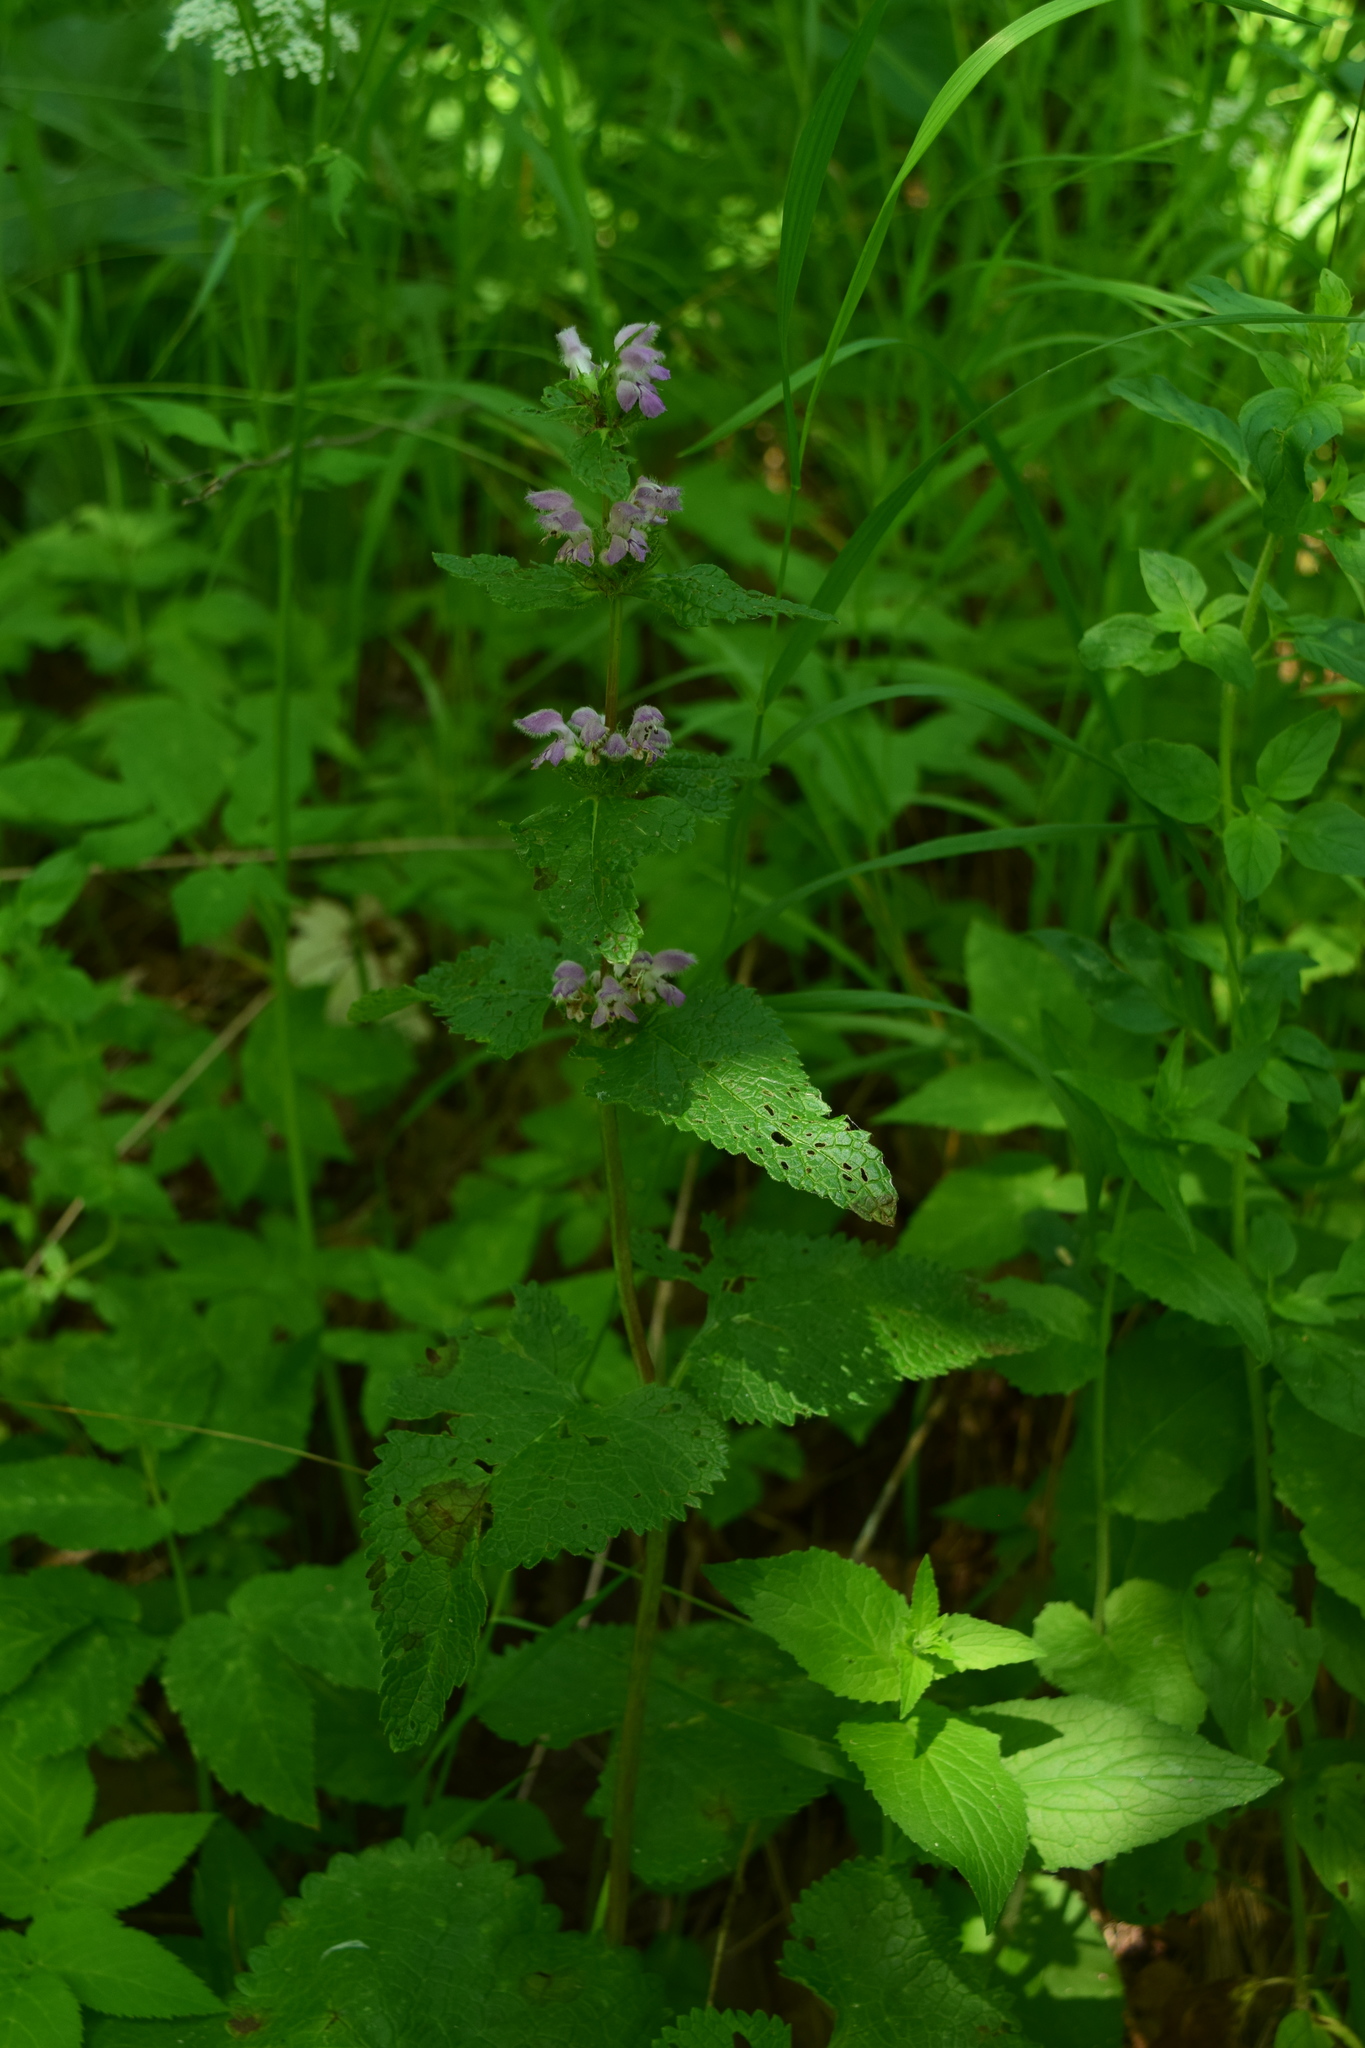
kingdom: Plantae
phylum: Tracheophyta
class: Magnoliopsida
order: Lamiales
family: Lamiaceae
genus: Phlomoides
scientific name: Phlomoides tuberosa
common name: Tuberous jerusalem sage
